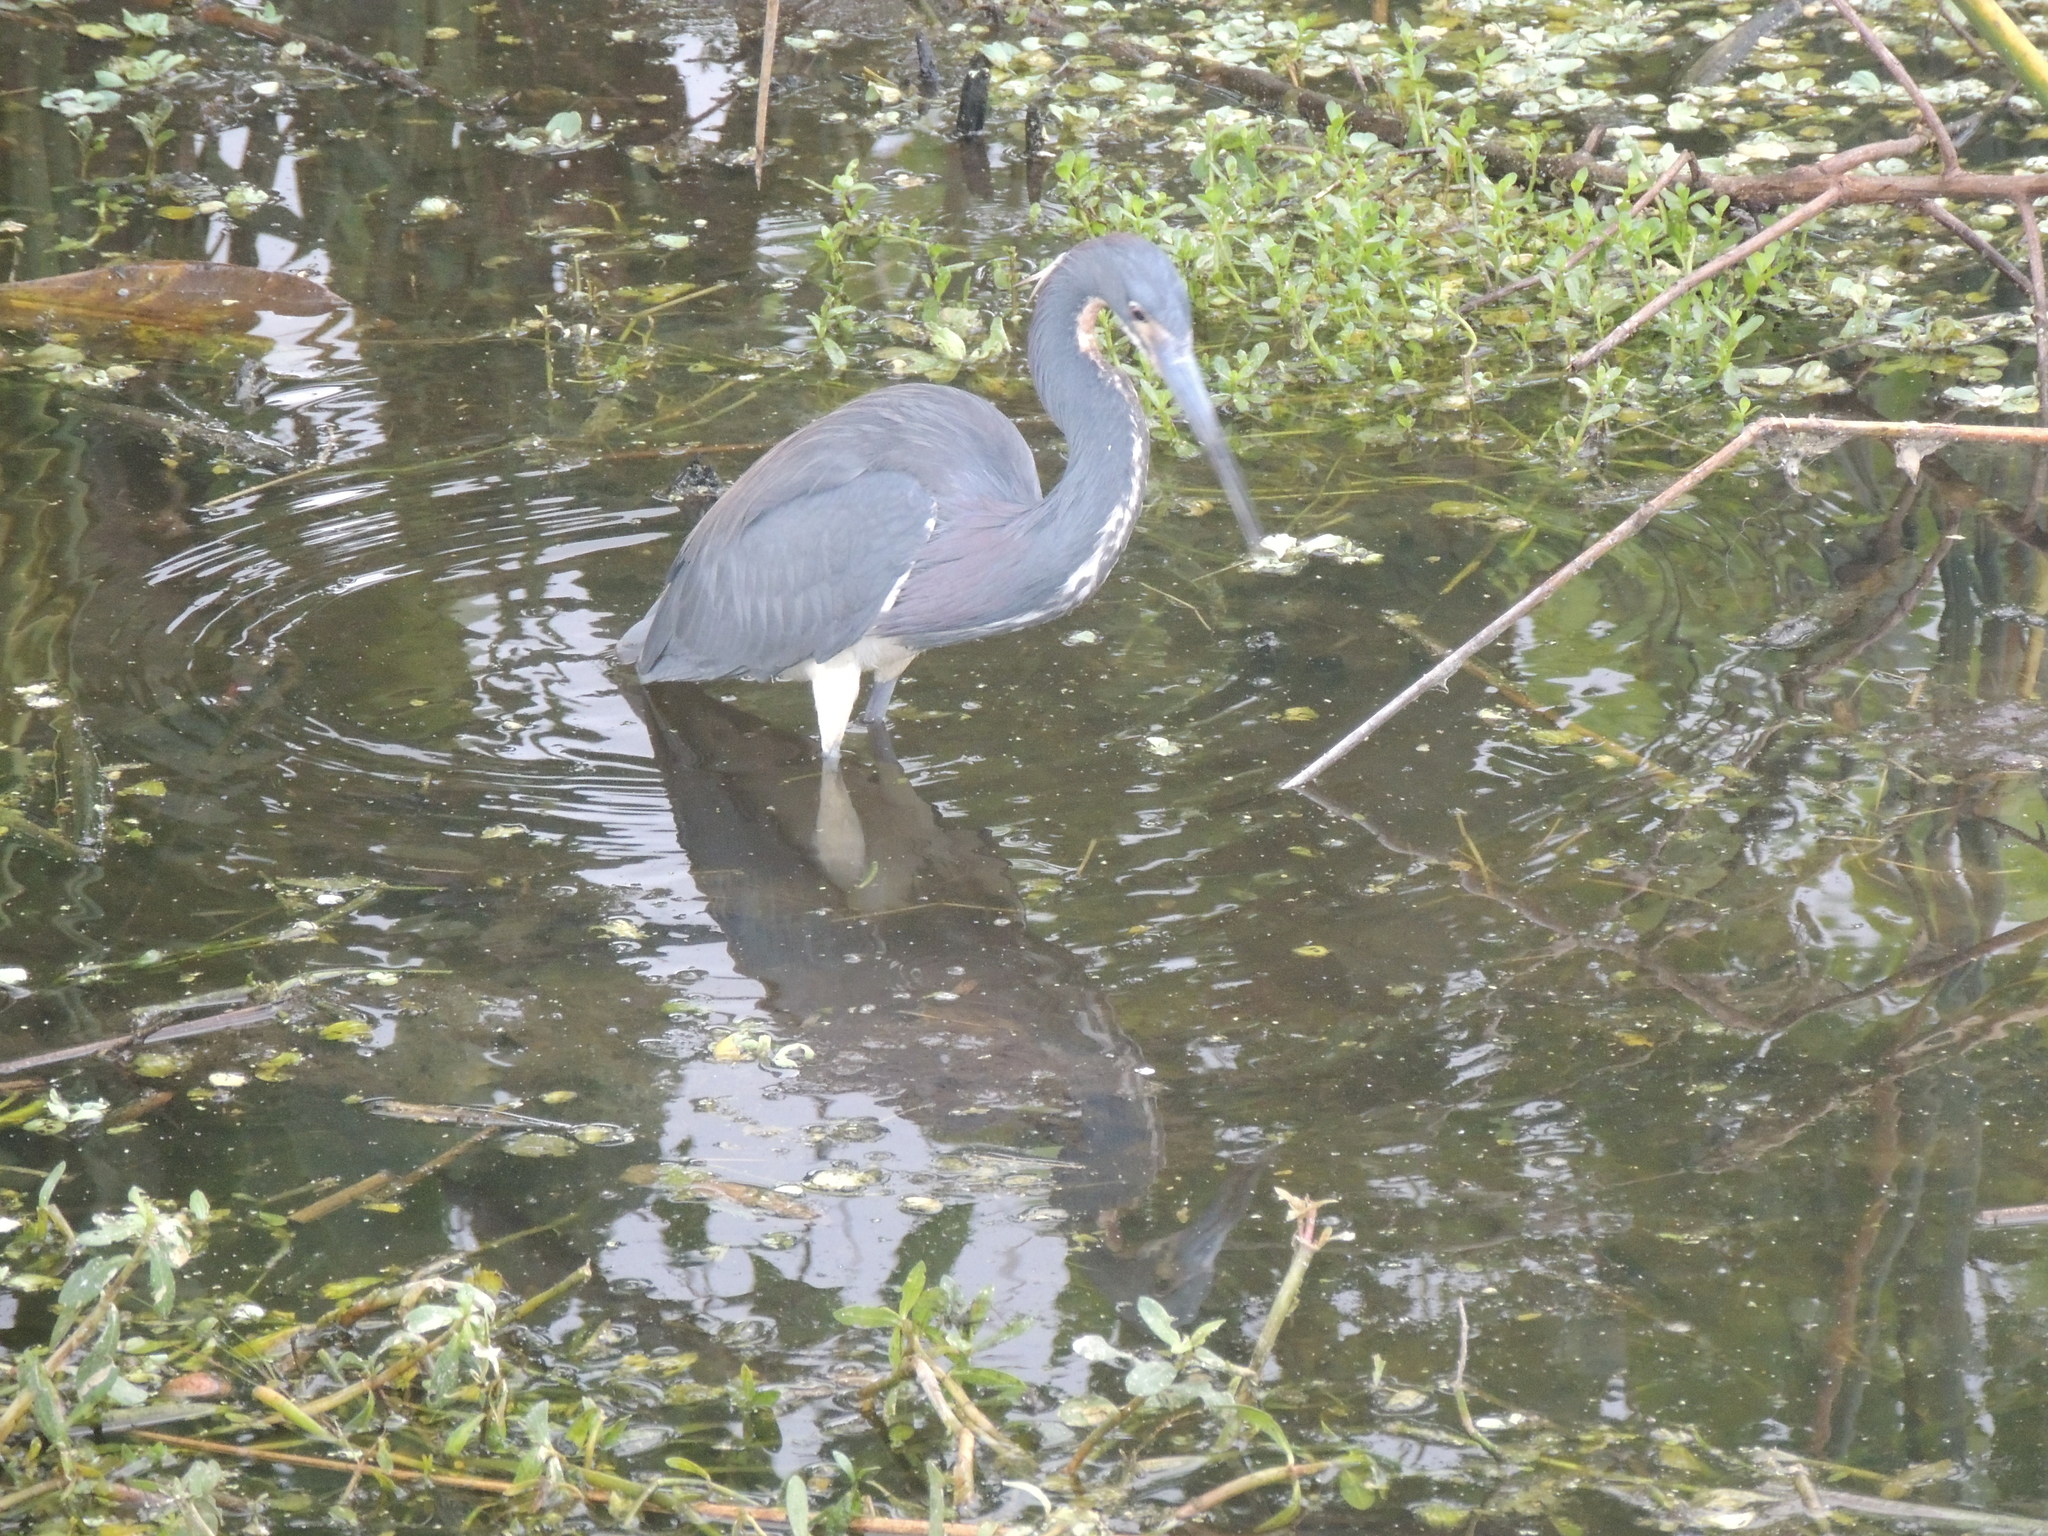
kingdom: Animalia
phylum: Chordata
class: Aves
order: Pelecaniformes
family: Ardeidae
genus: Egretta
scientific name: Egretta tricolor
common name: Tricolored heron
